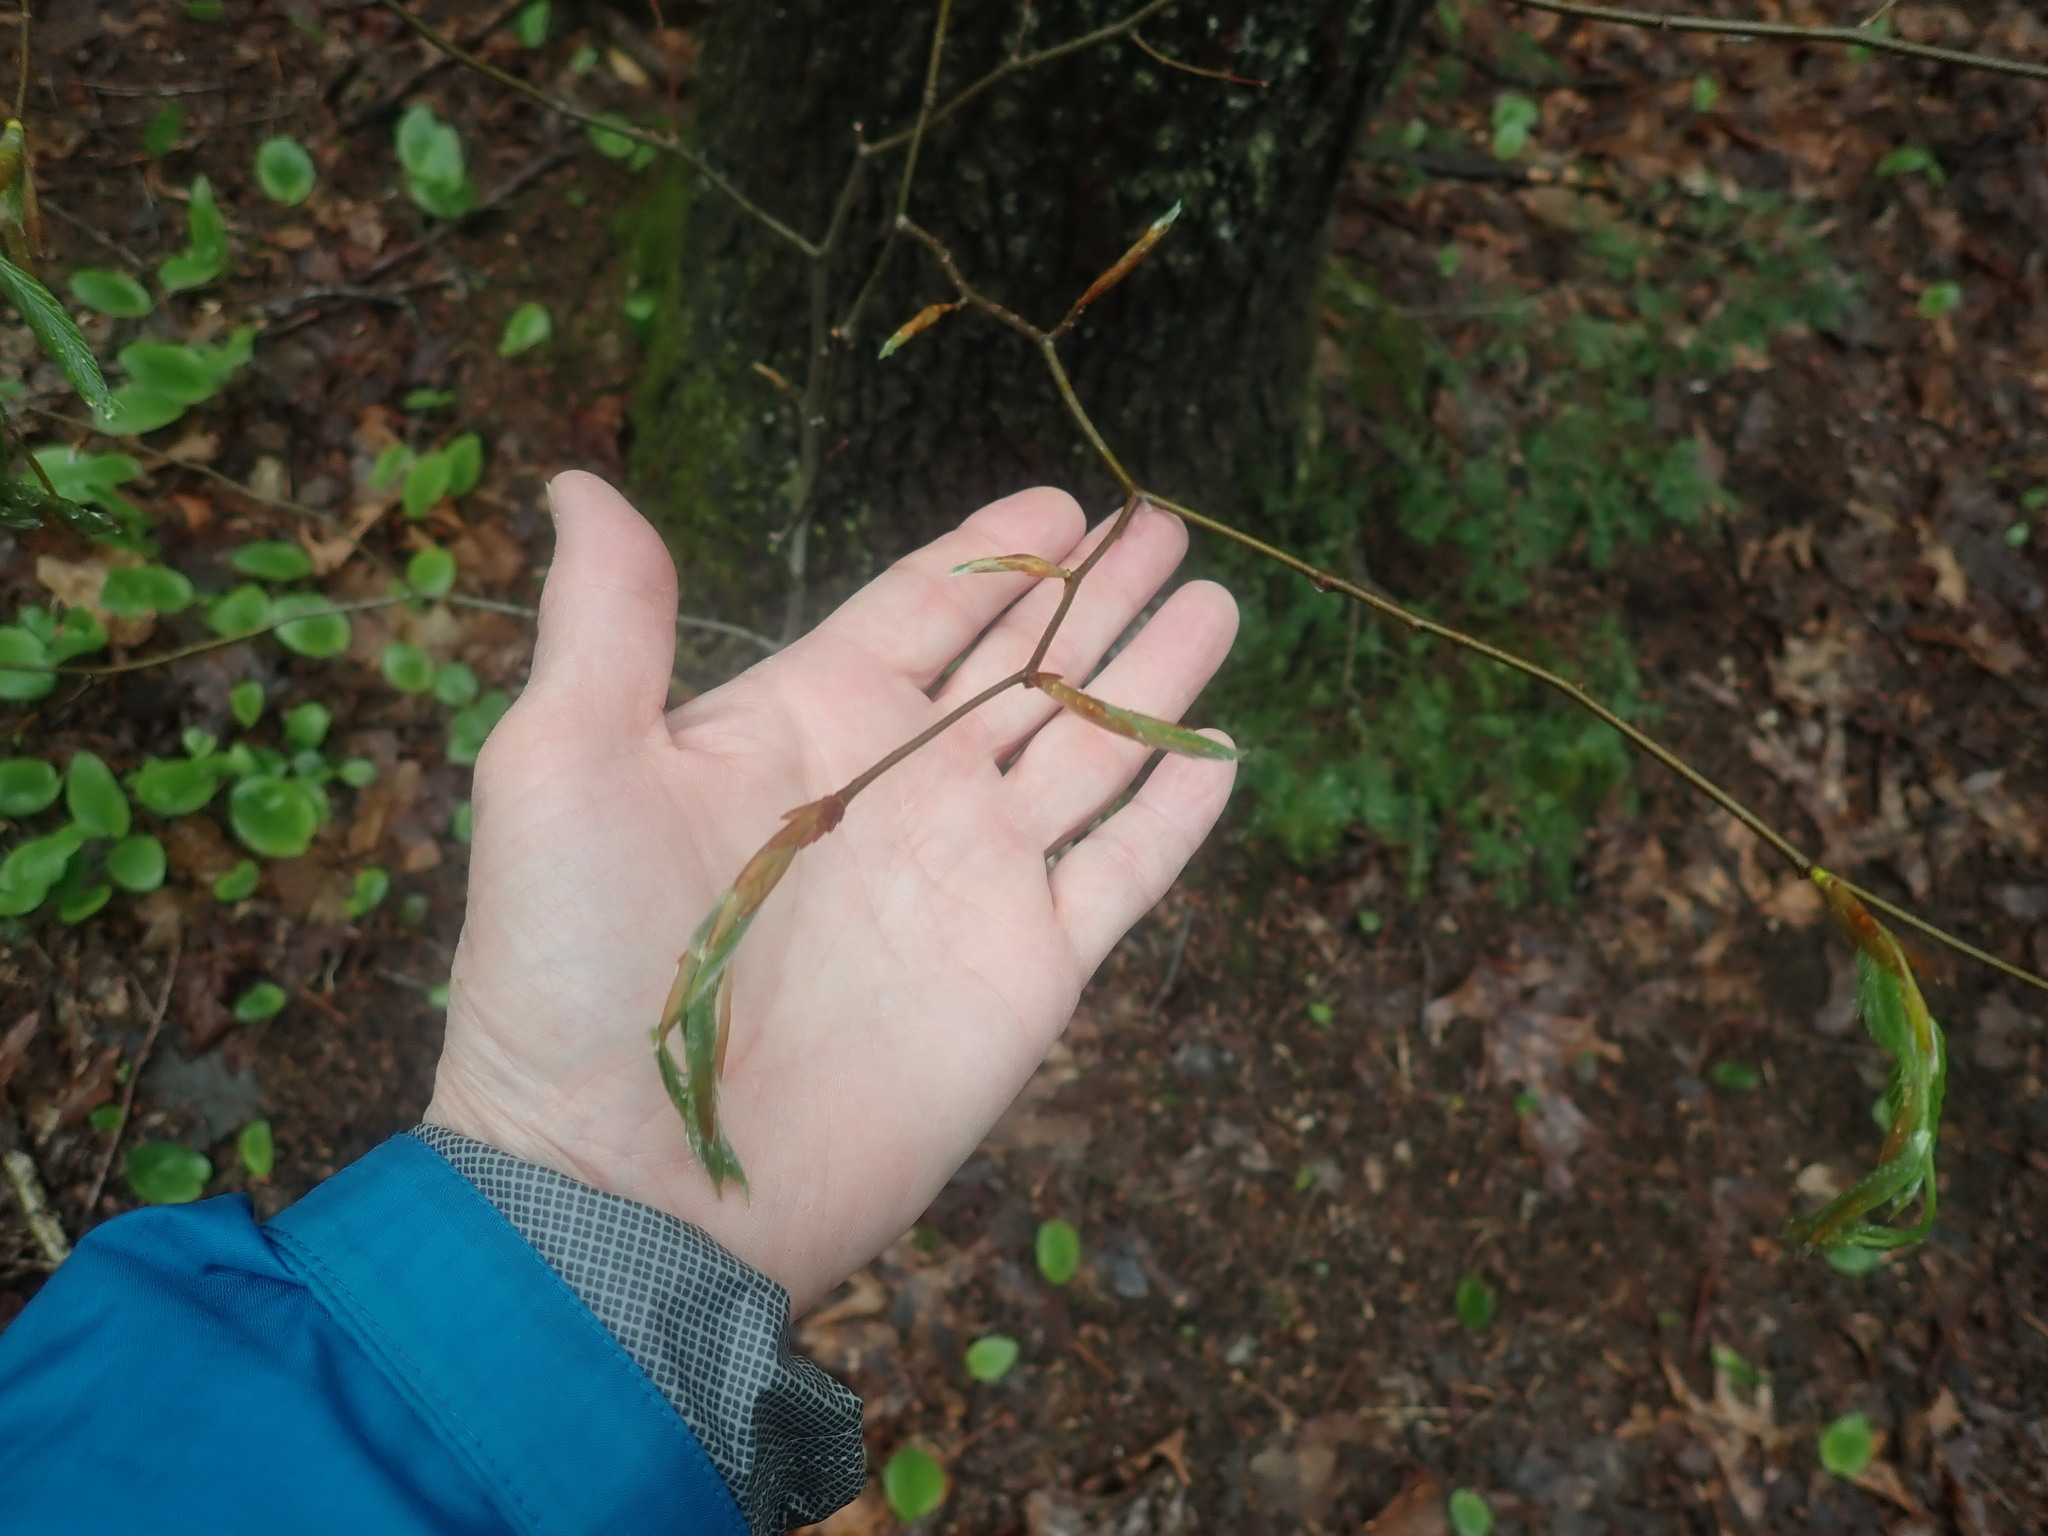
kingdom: Plantae
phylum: Tracheophyta
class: Magnoliopsida
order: Fagales
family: Fagaceae
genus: Fagus
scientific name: Fagus grandifolia
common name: American beech
